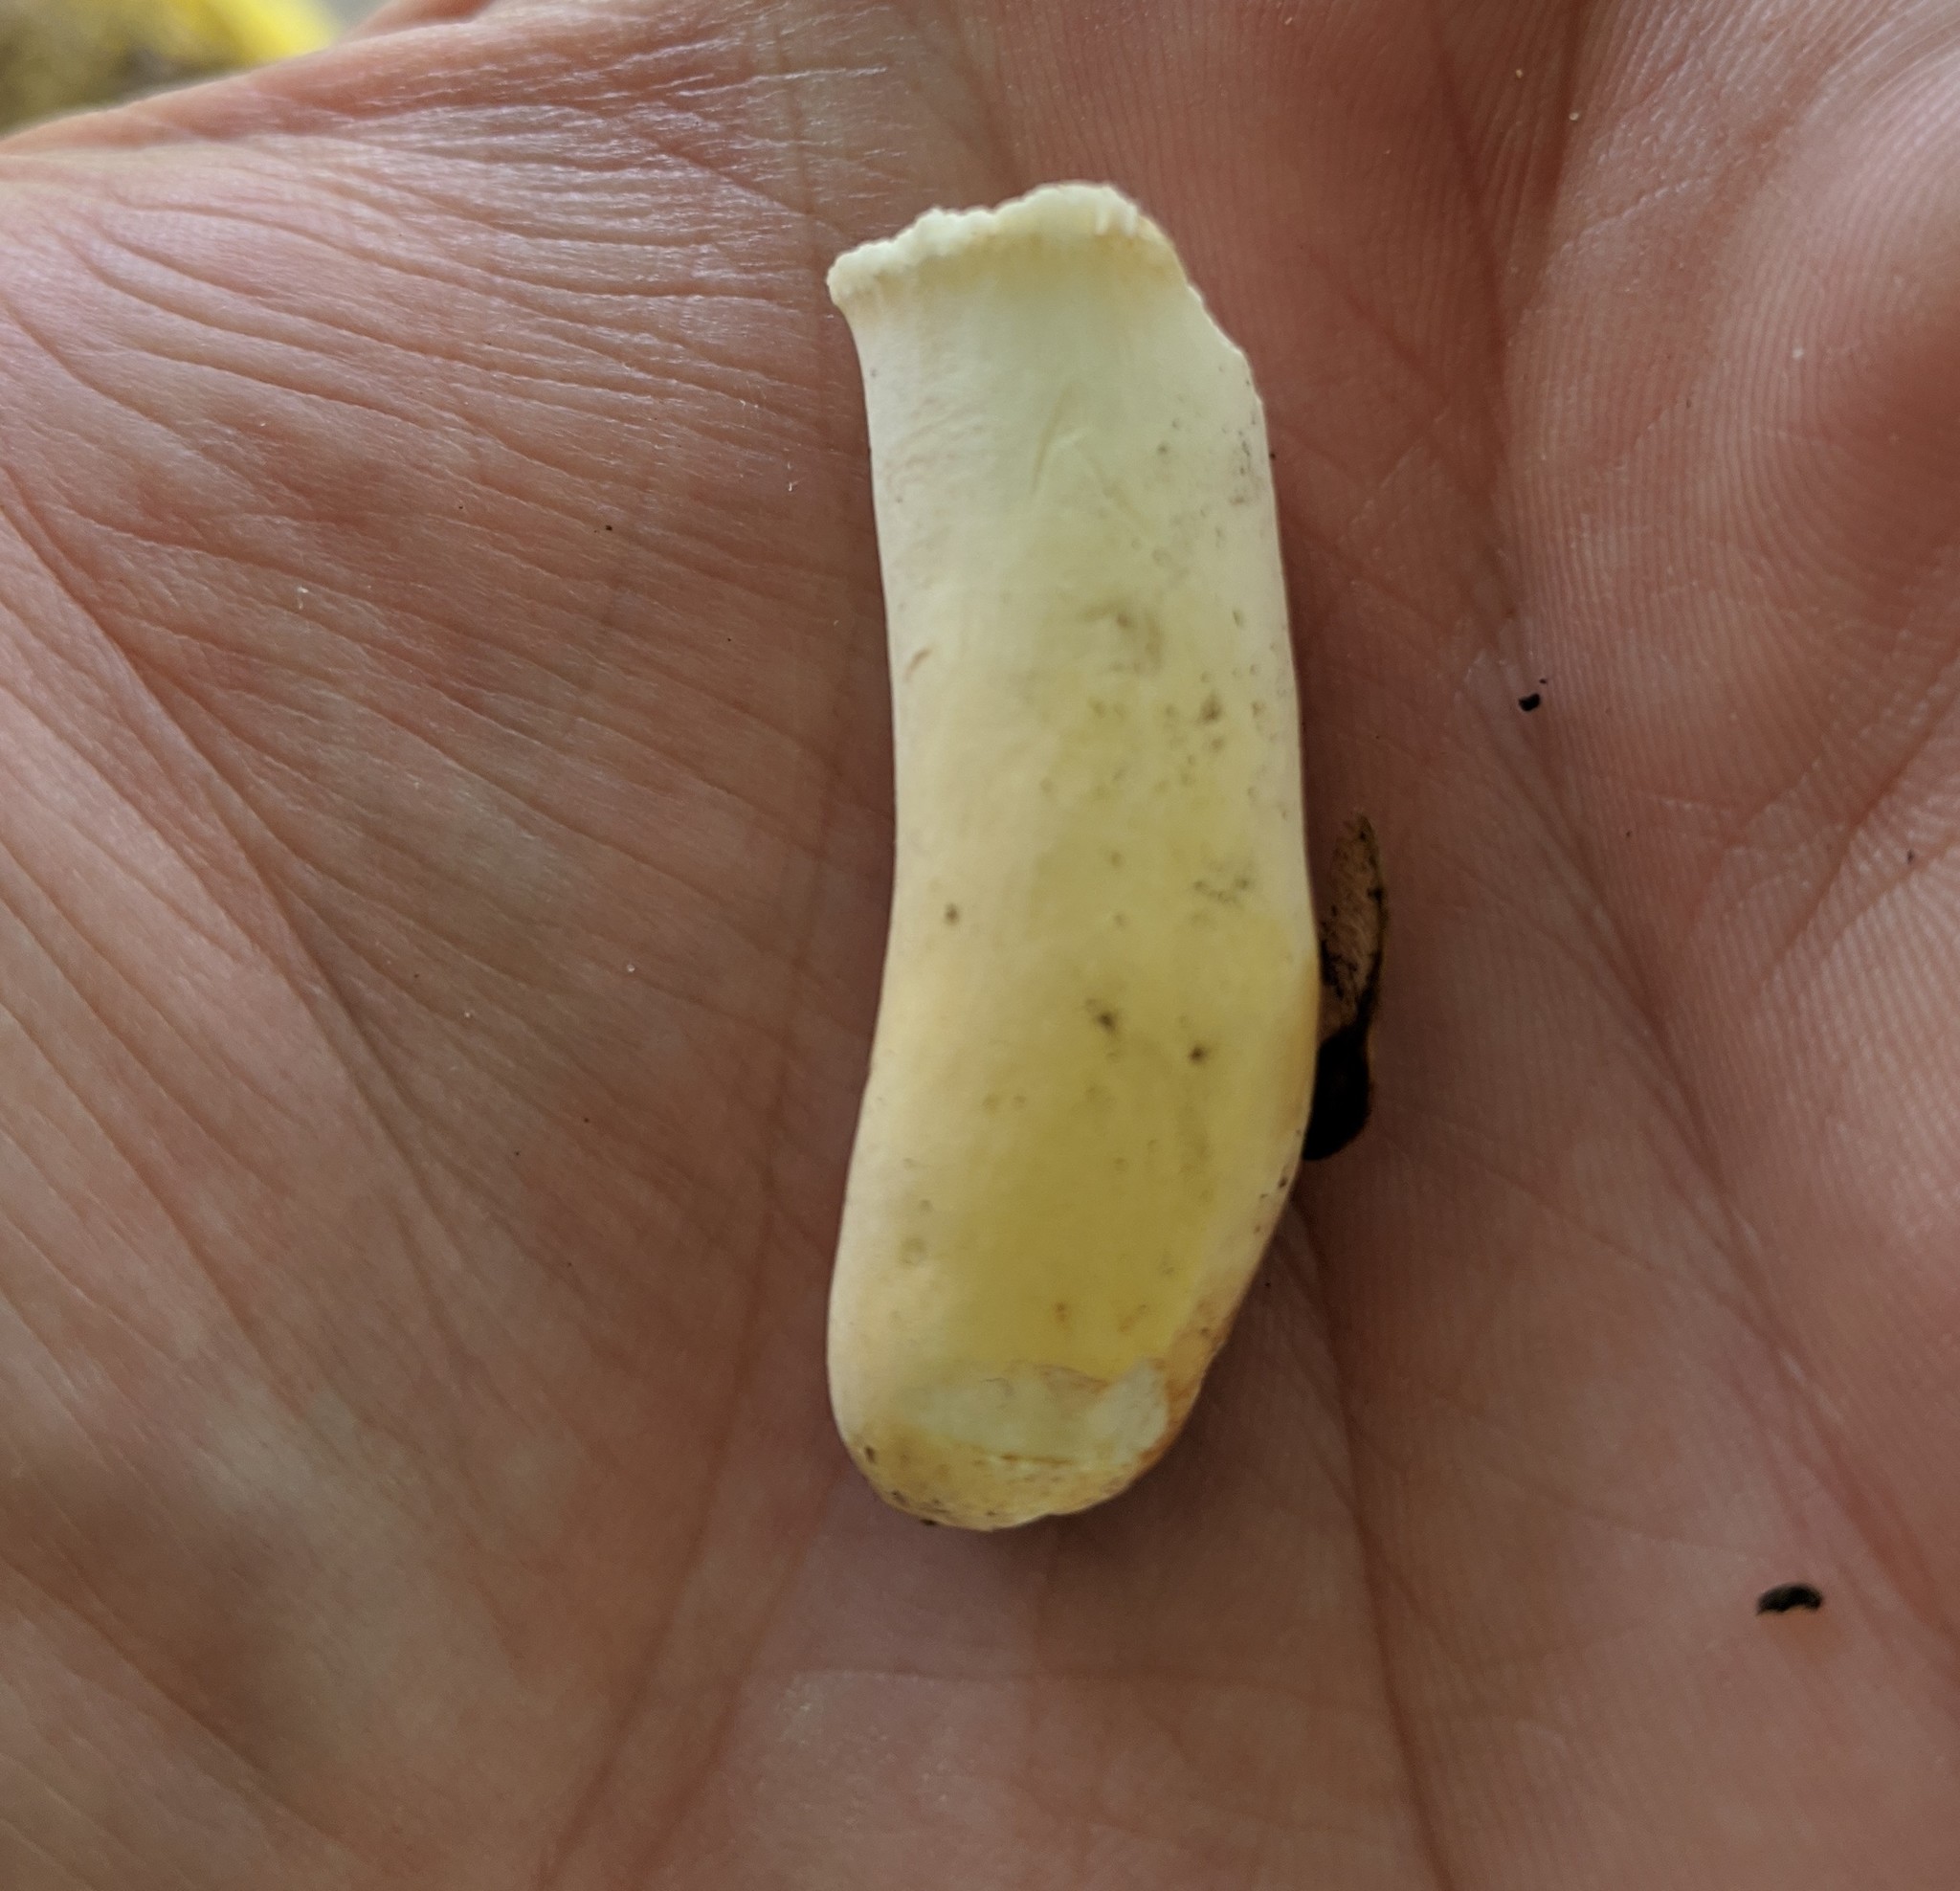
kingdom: Fungi
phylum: Basidiomycota
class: Agaricomycetes
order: Russulales
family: Russulaceae
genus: Russula
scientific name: Russula ochroleucoides
